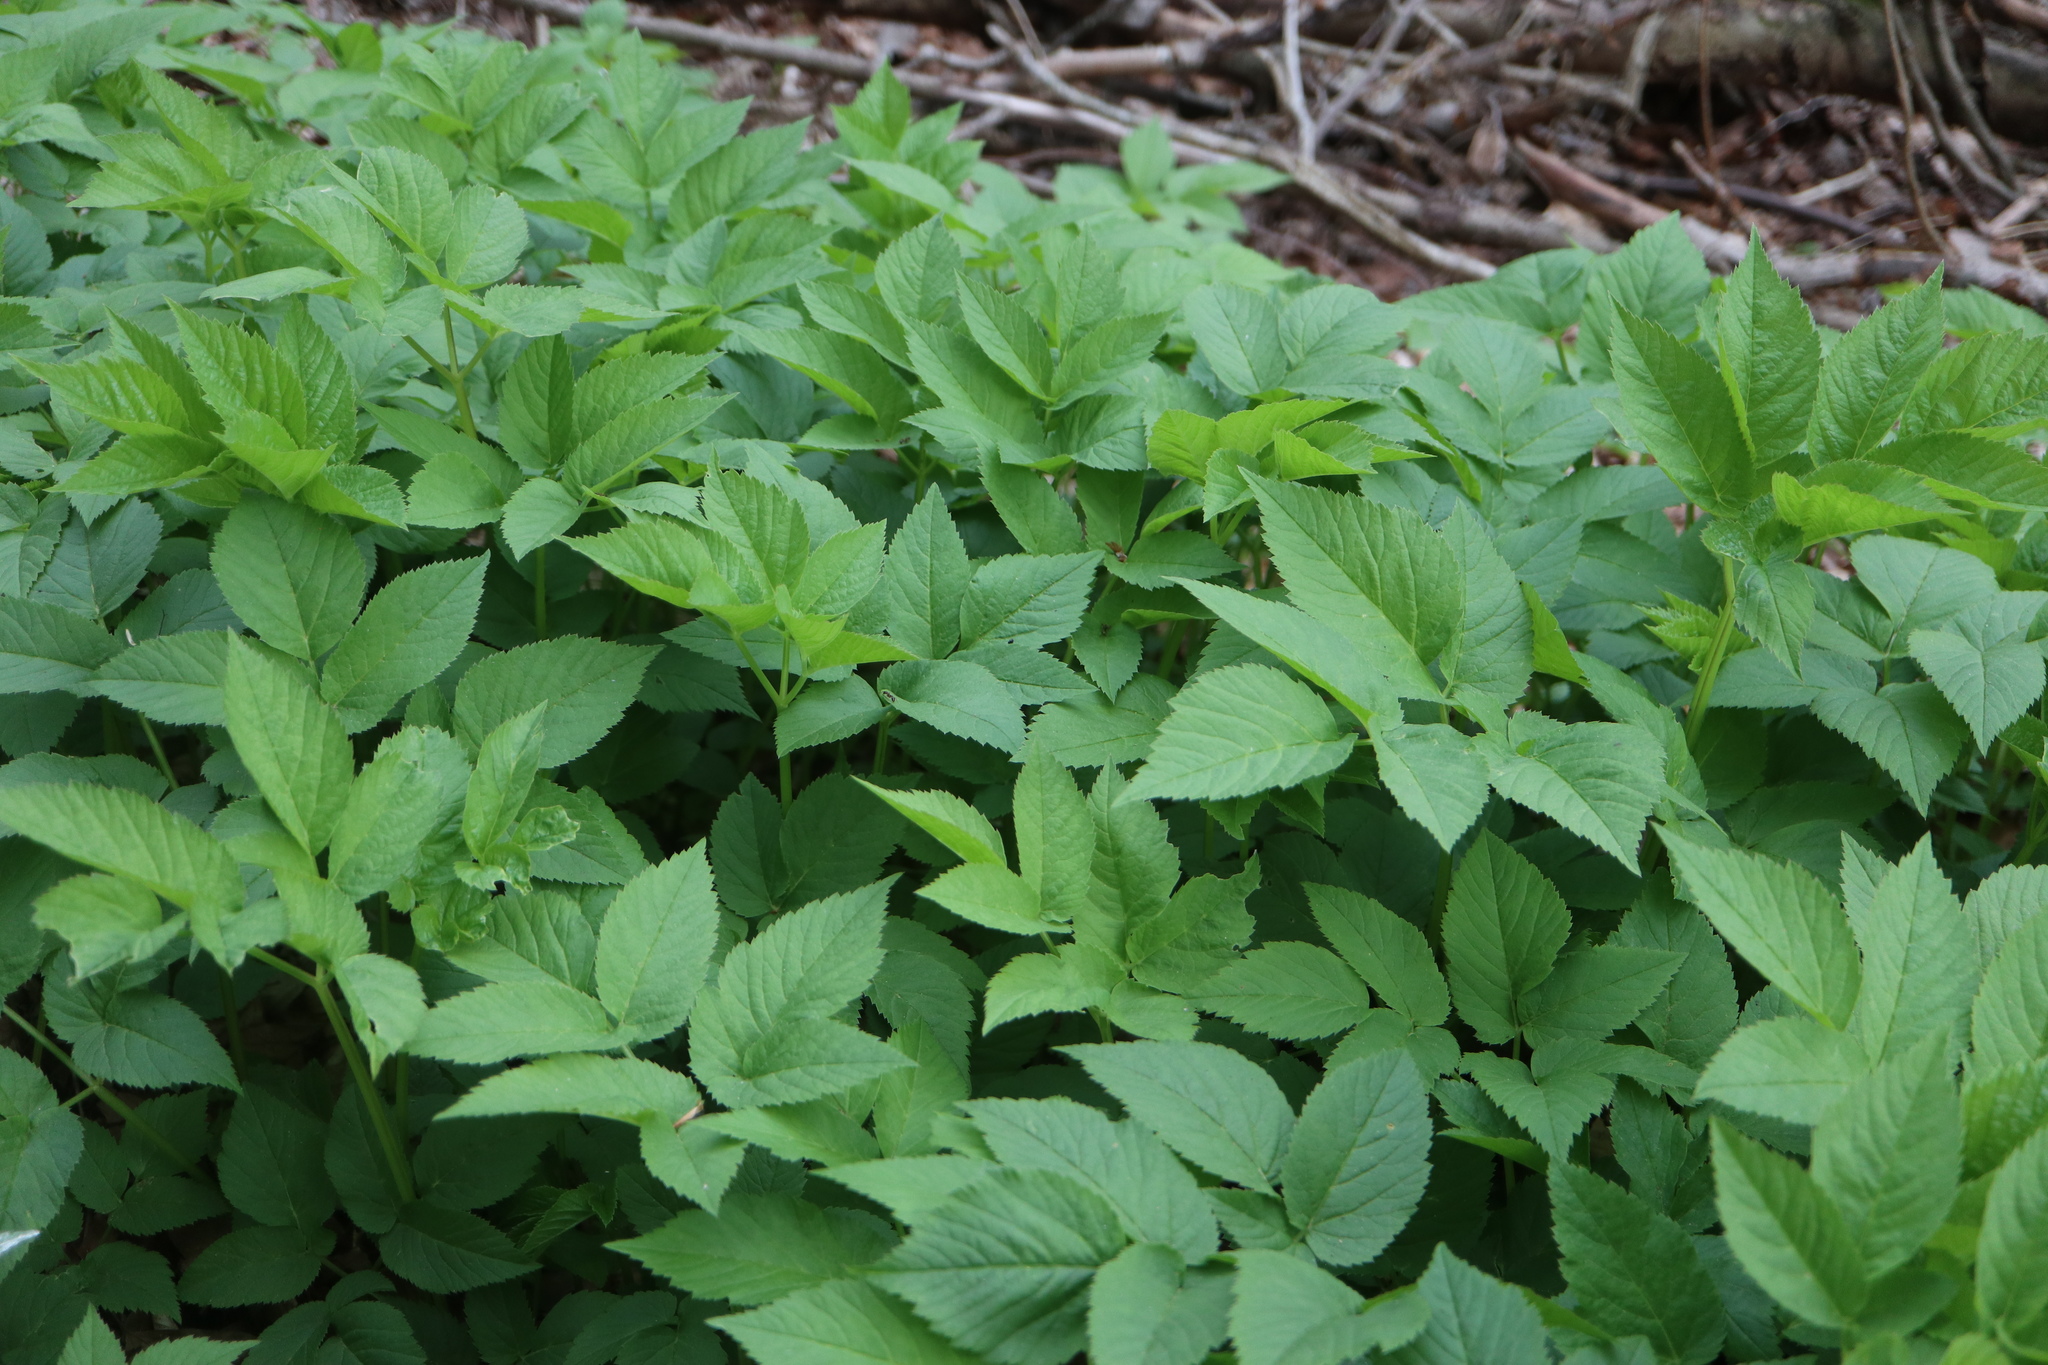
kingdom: Plantae
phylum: Tracheophyta
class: Magnoliopsida
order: Apiales
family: Apiaceae
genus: Aegopodium
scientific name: Aegopodium podagraria
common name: Ground-elder
